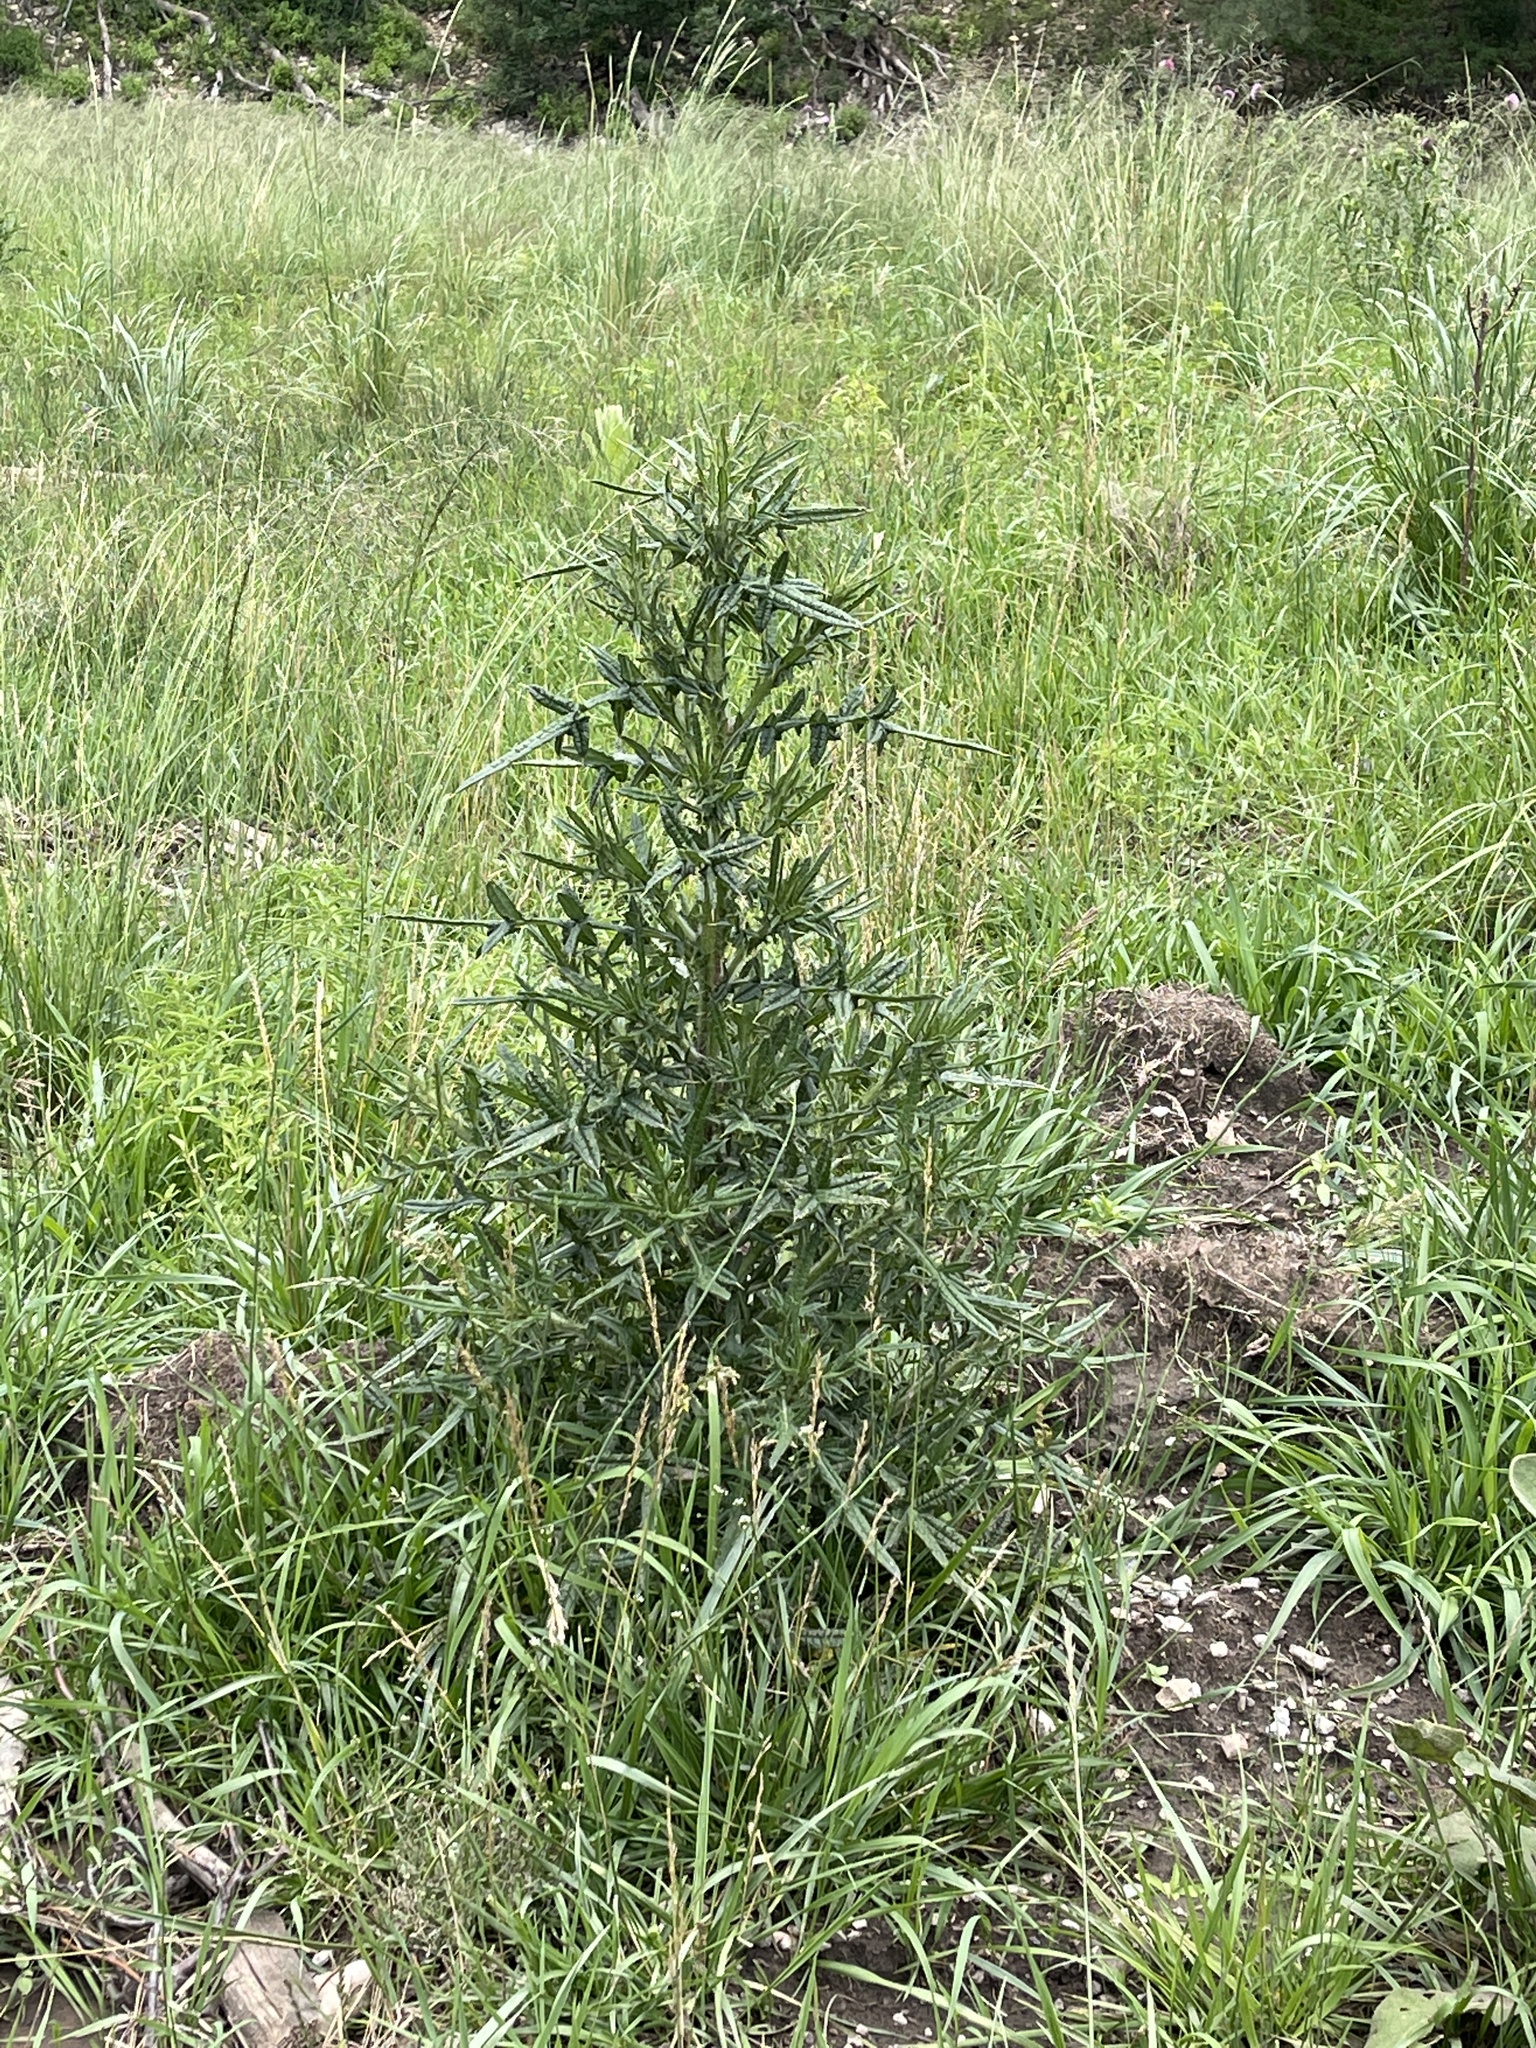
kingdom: Plantae
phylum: Tracheophyta
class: Magnoliopsida
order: Asterales
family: Asteraceae
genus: Cirsium
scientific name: Cirsium vulgare
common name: Bull thistle
